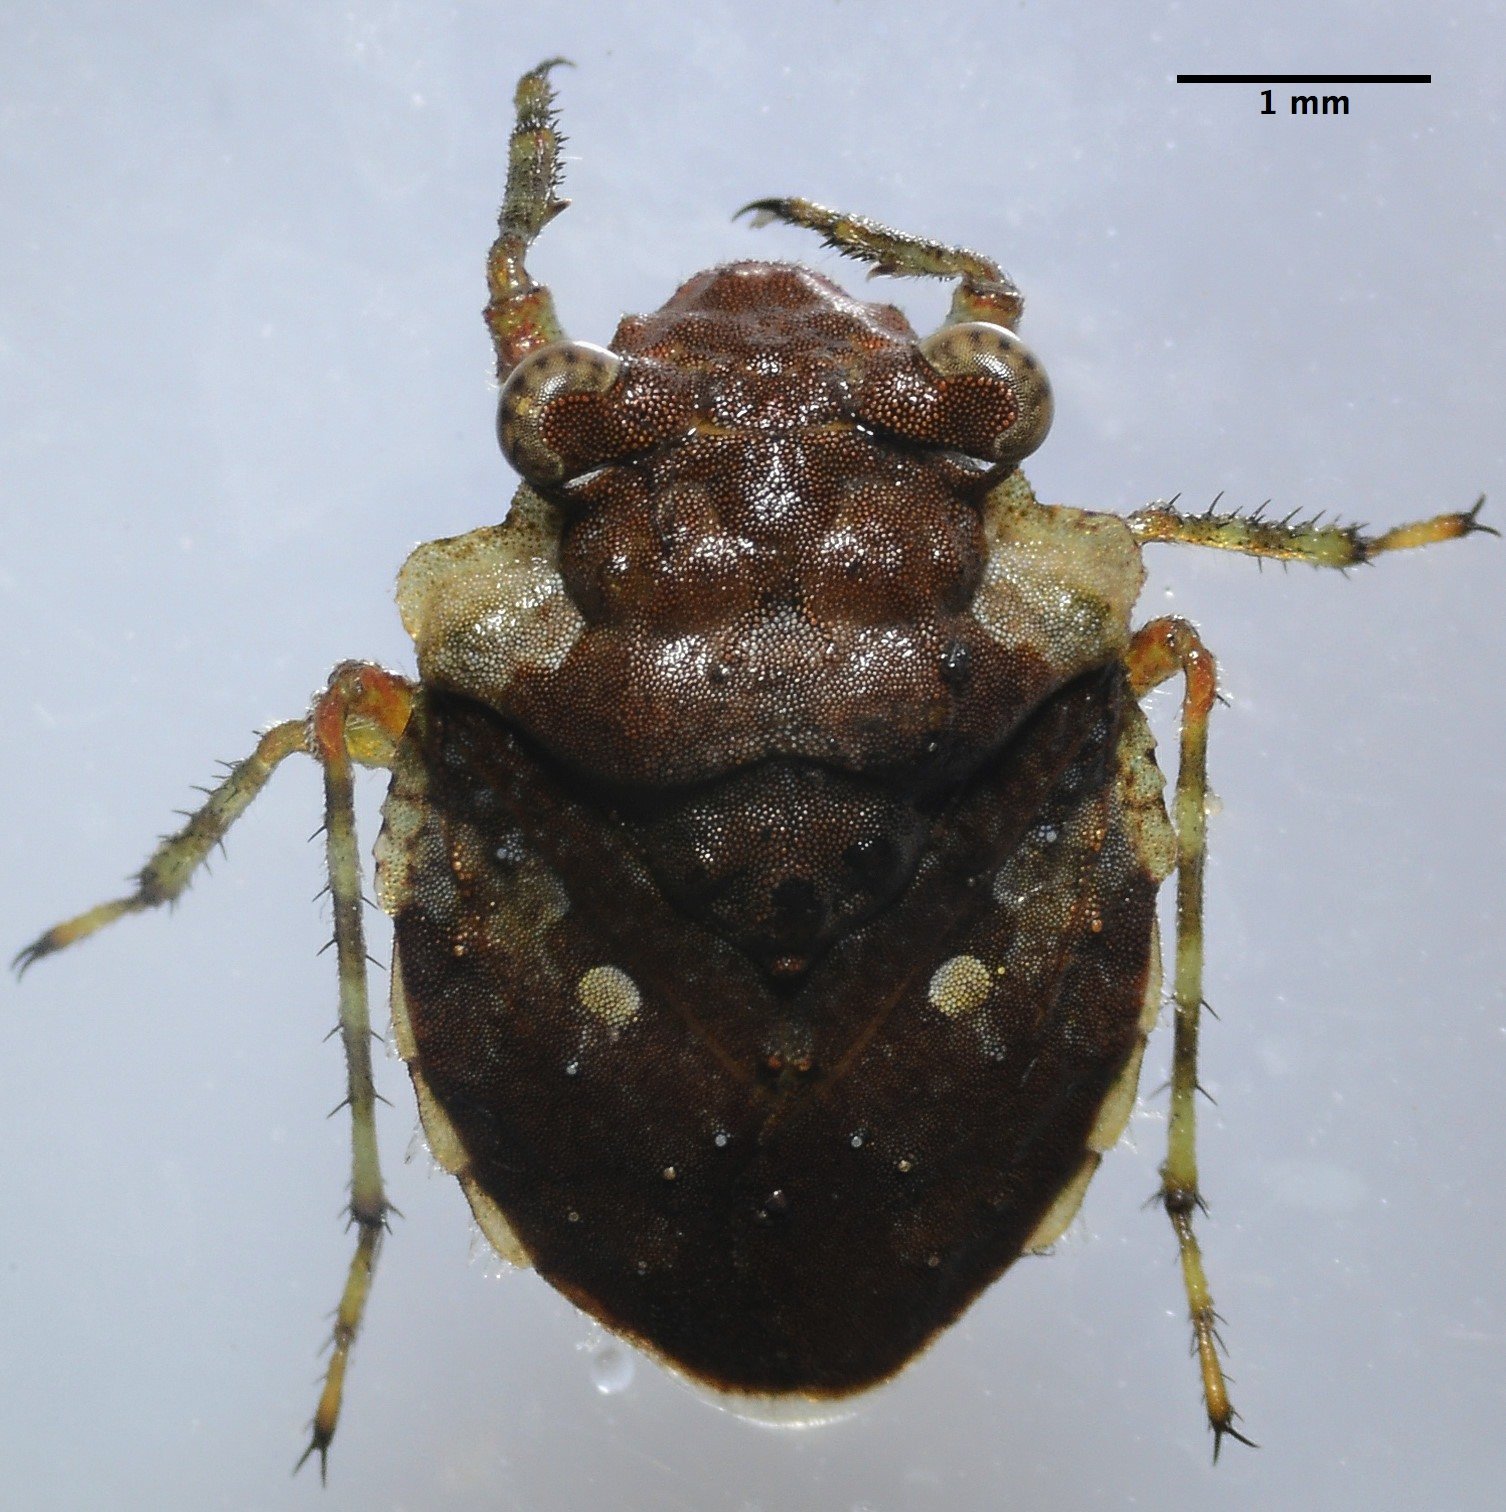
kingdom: Animalia
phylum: Arthropoda
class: Insecta
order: Hemiptera
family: Gelastocoridae
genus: Gelastocoris
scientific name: Gelastocoris oculatus
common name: Toad bug
